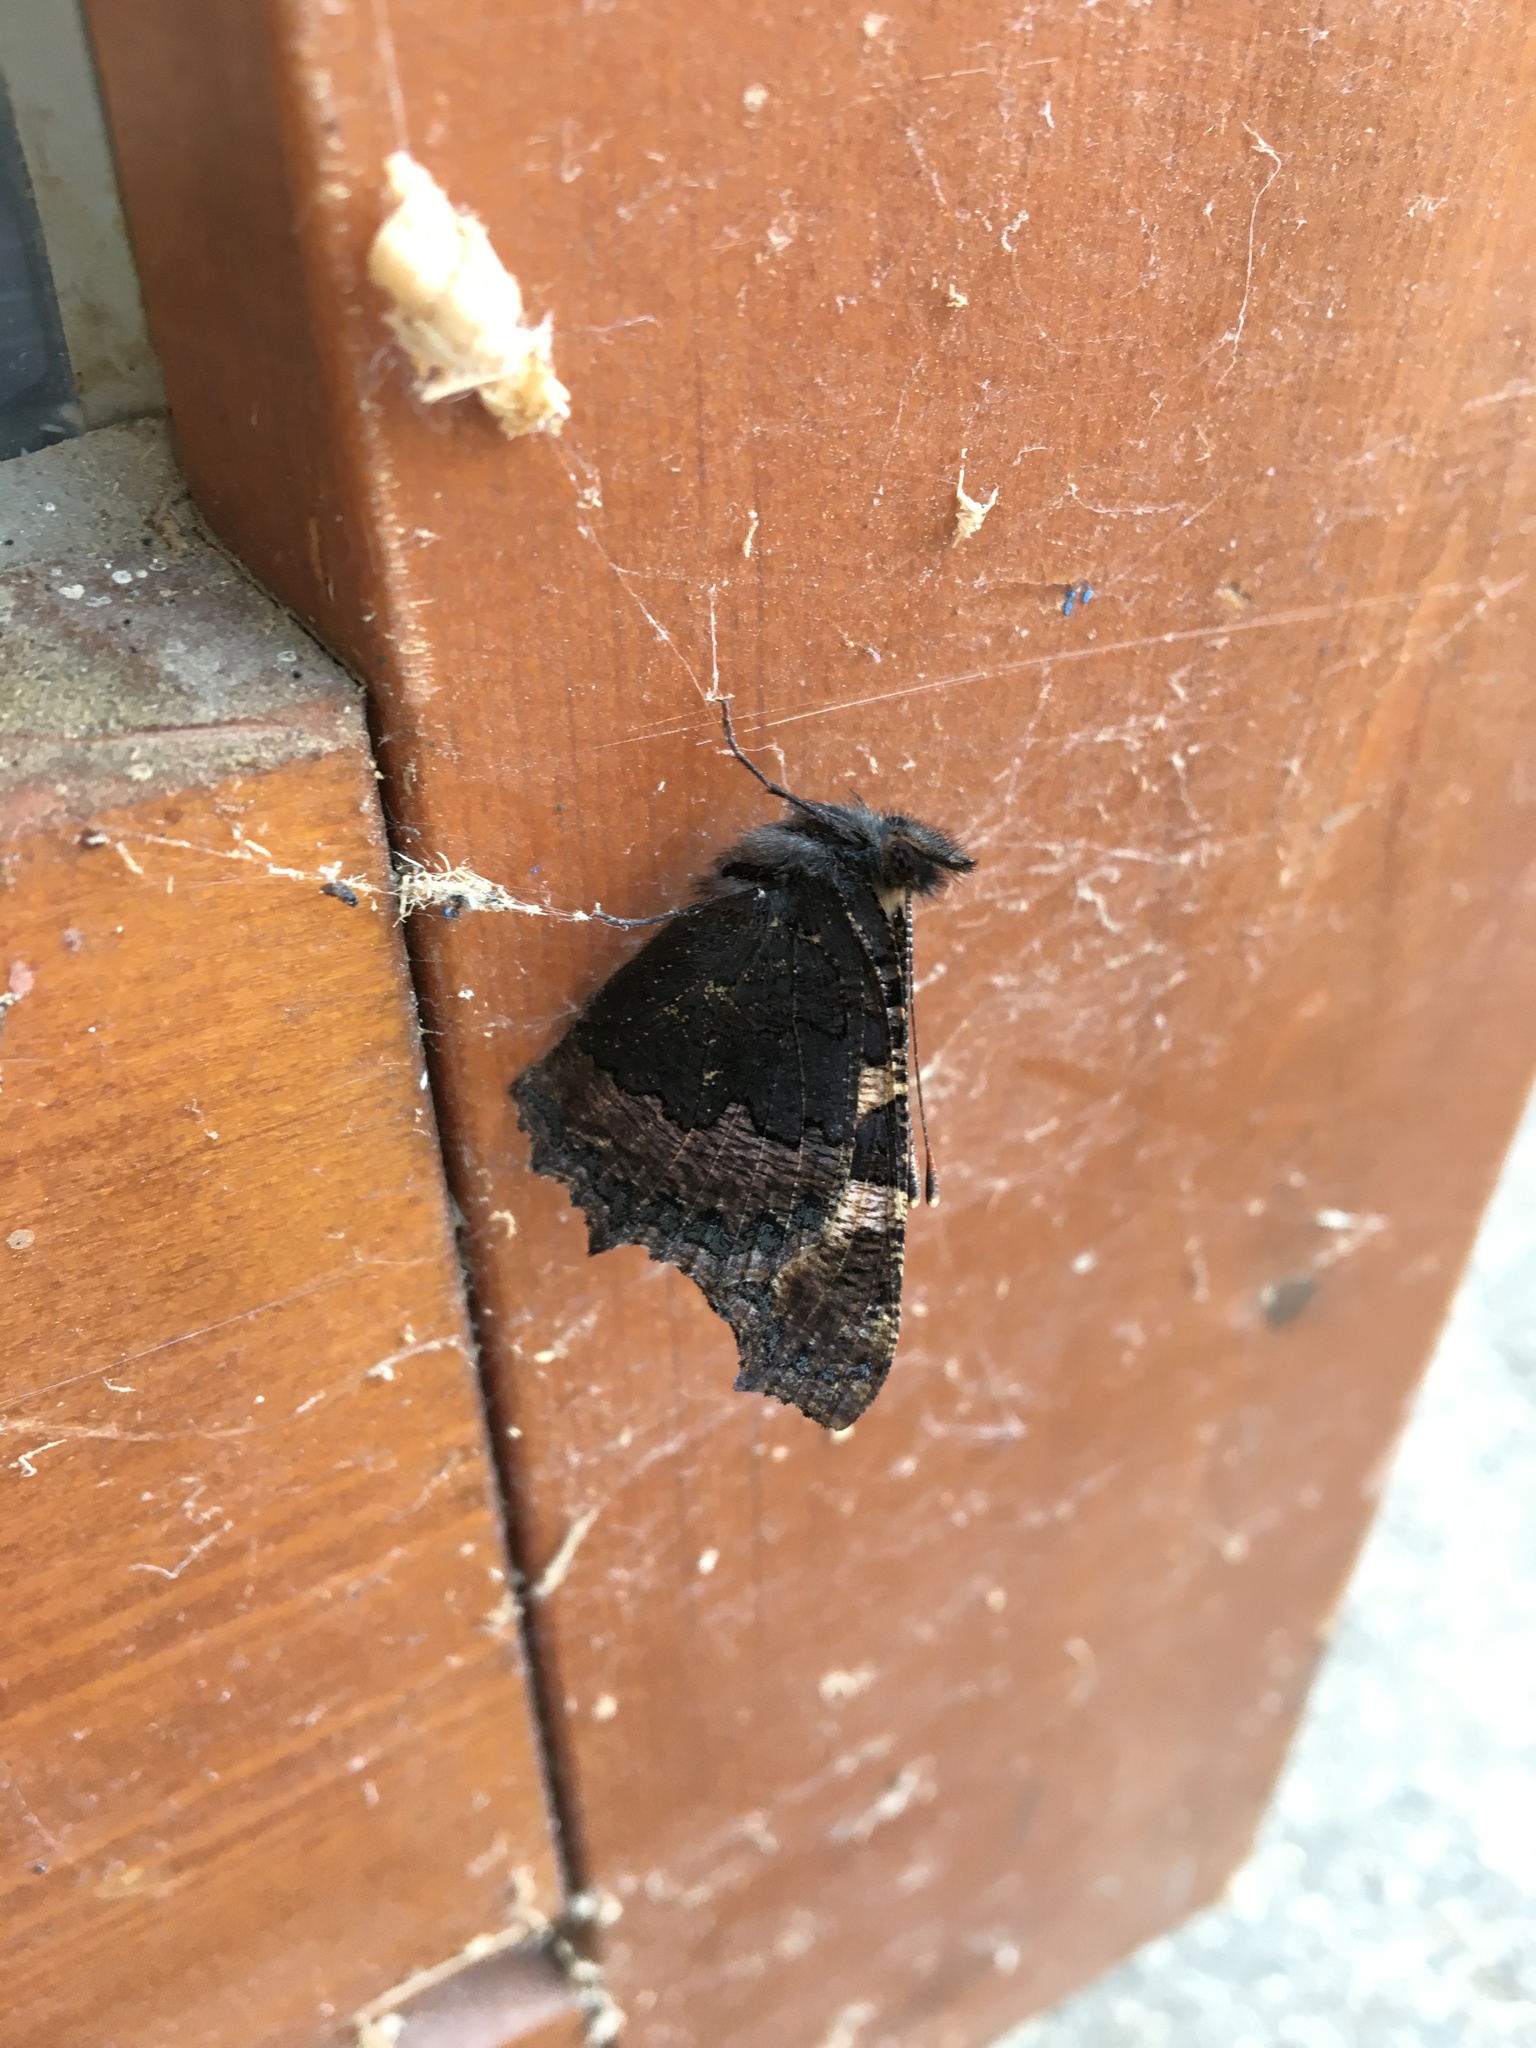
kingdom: Animalia
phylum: Arthropoda
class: Insecta
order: Lepidoptera
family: Nymphalidae
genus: Aglais
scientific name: Aglais urticae
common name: Small tortoiseshell
